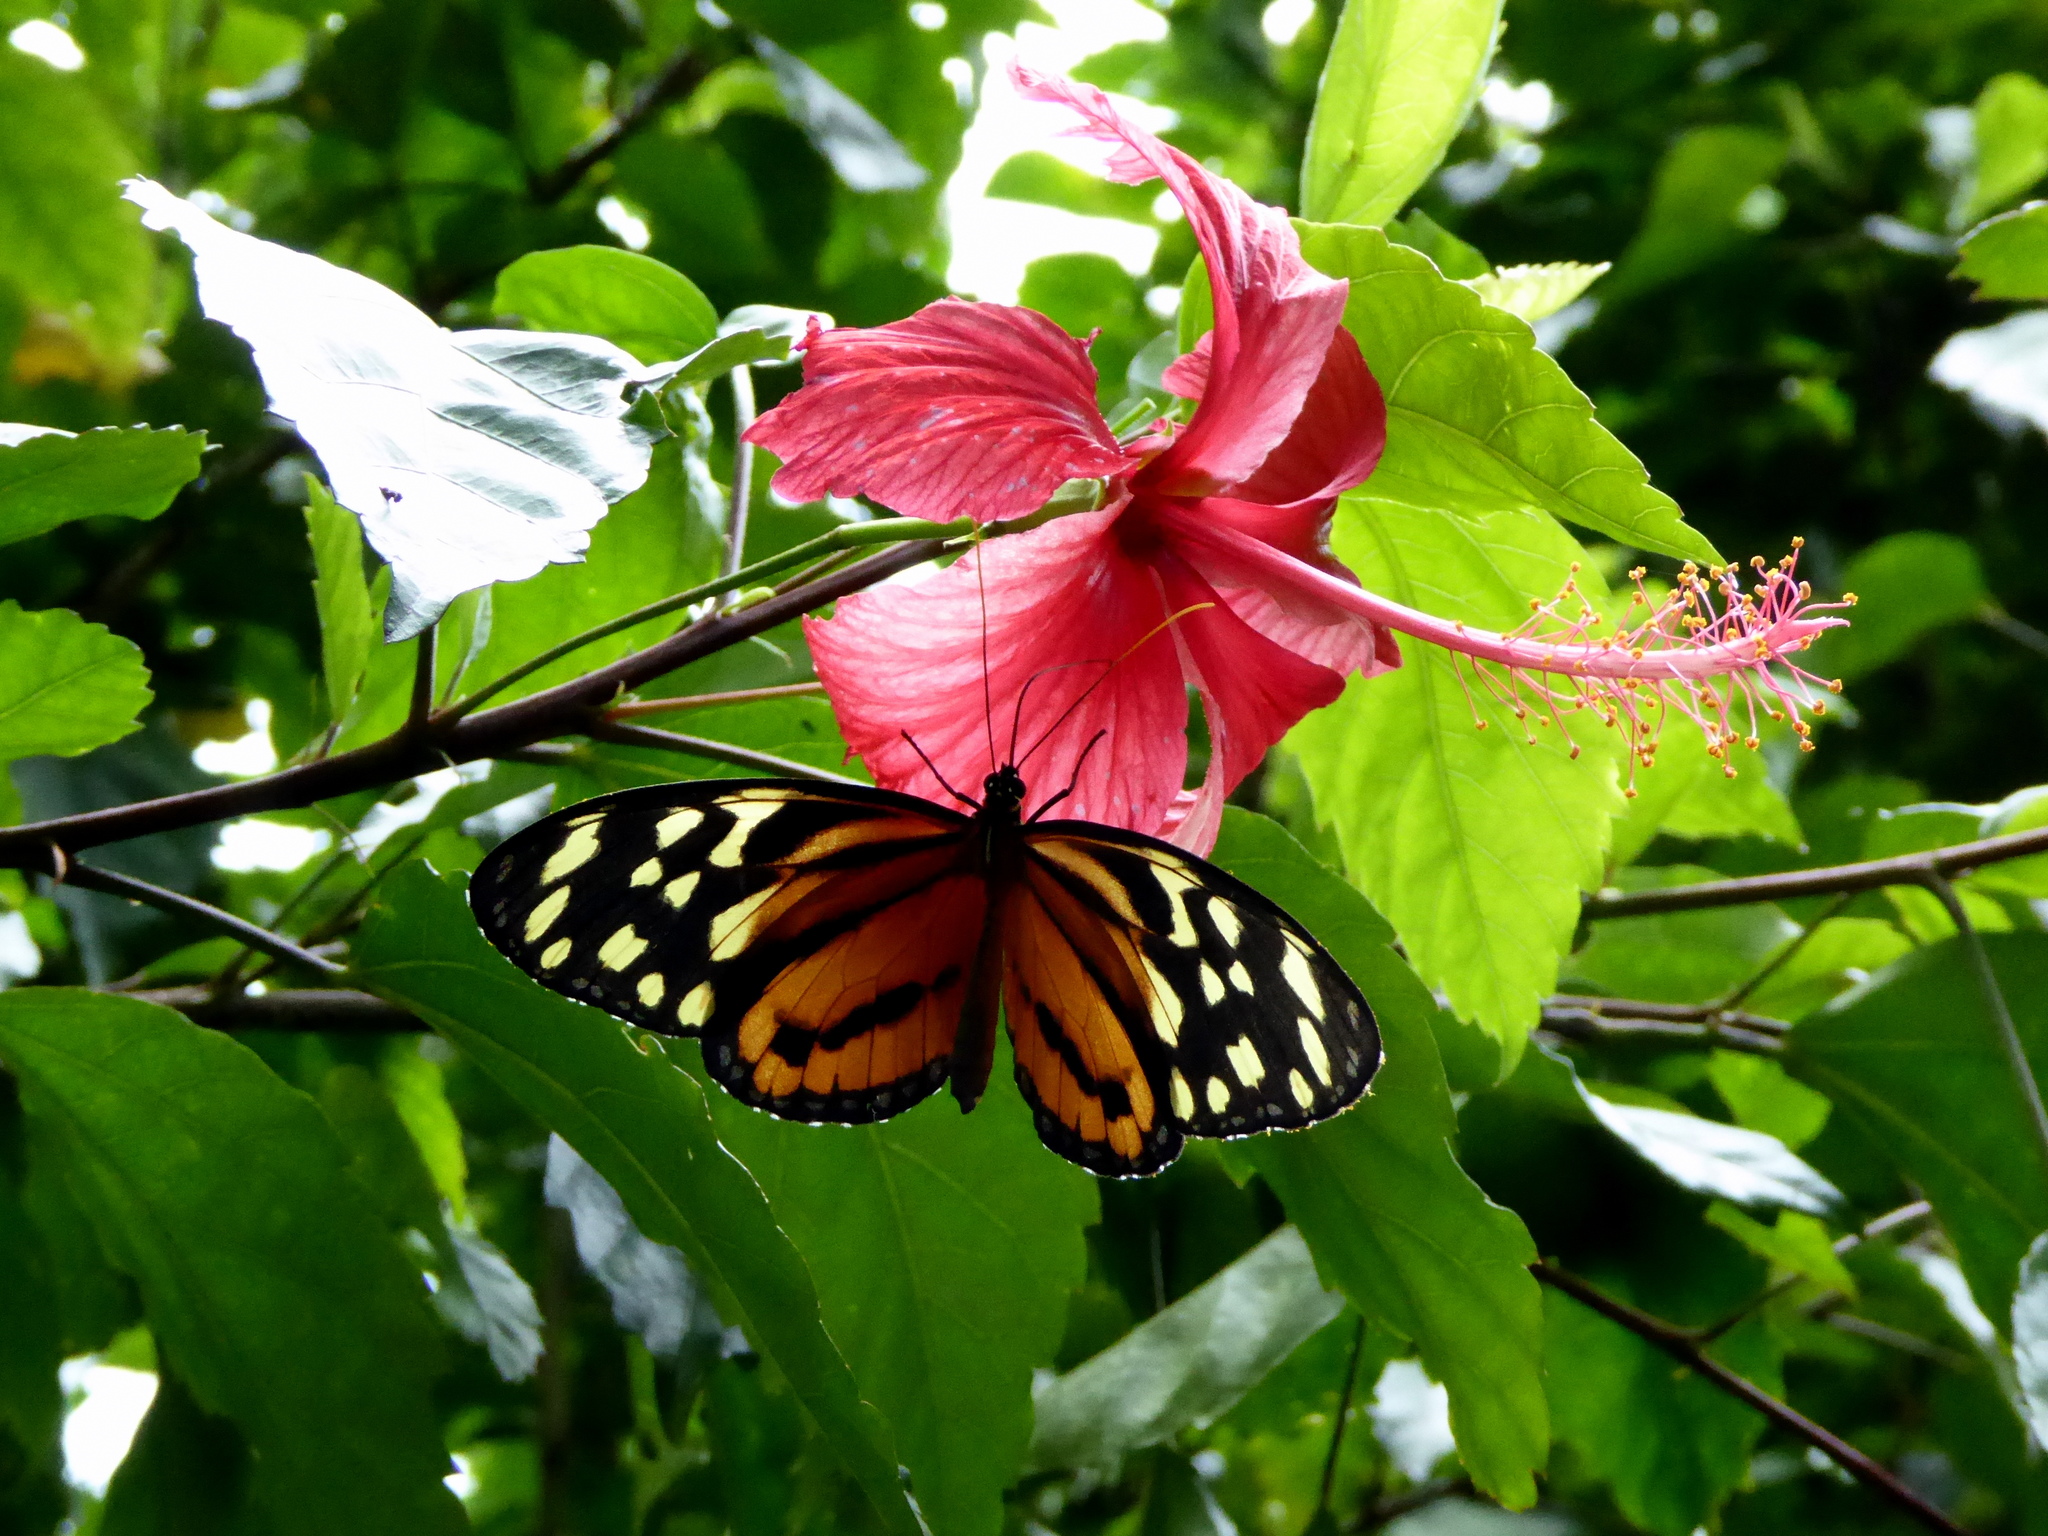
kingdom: Animalia
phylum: Arthropoda
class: Insecta
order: Lepidoptera
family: Nymphalidae
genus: Tithorea
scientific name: Tithorea harmonia
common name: Harmonia tigerwing
